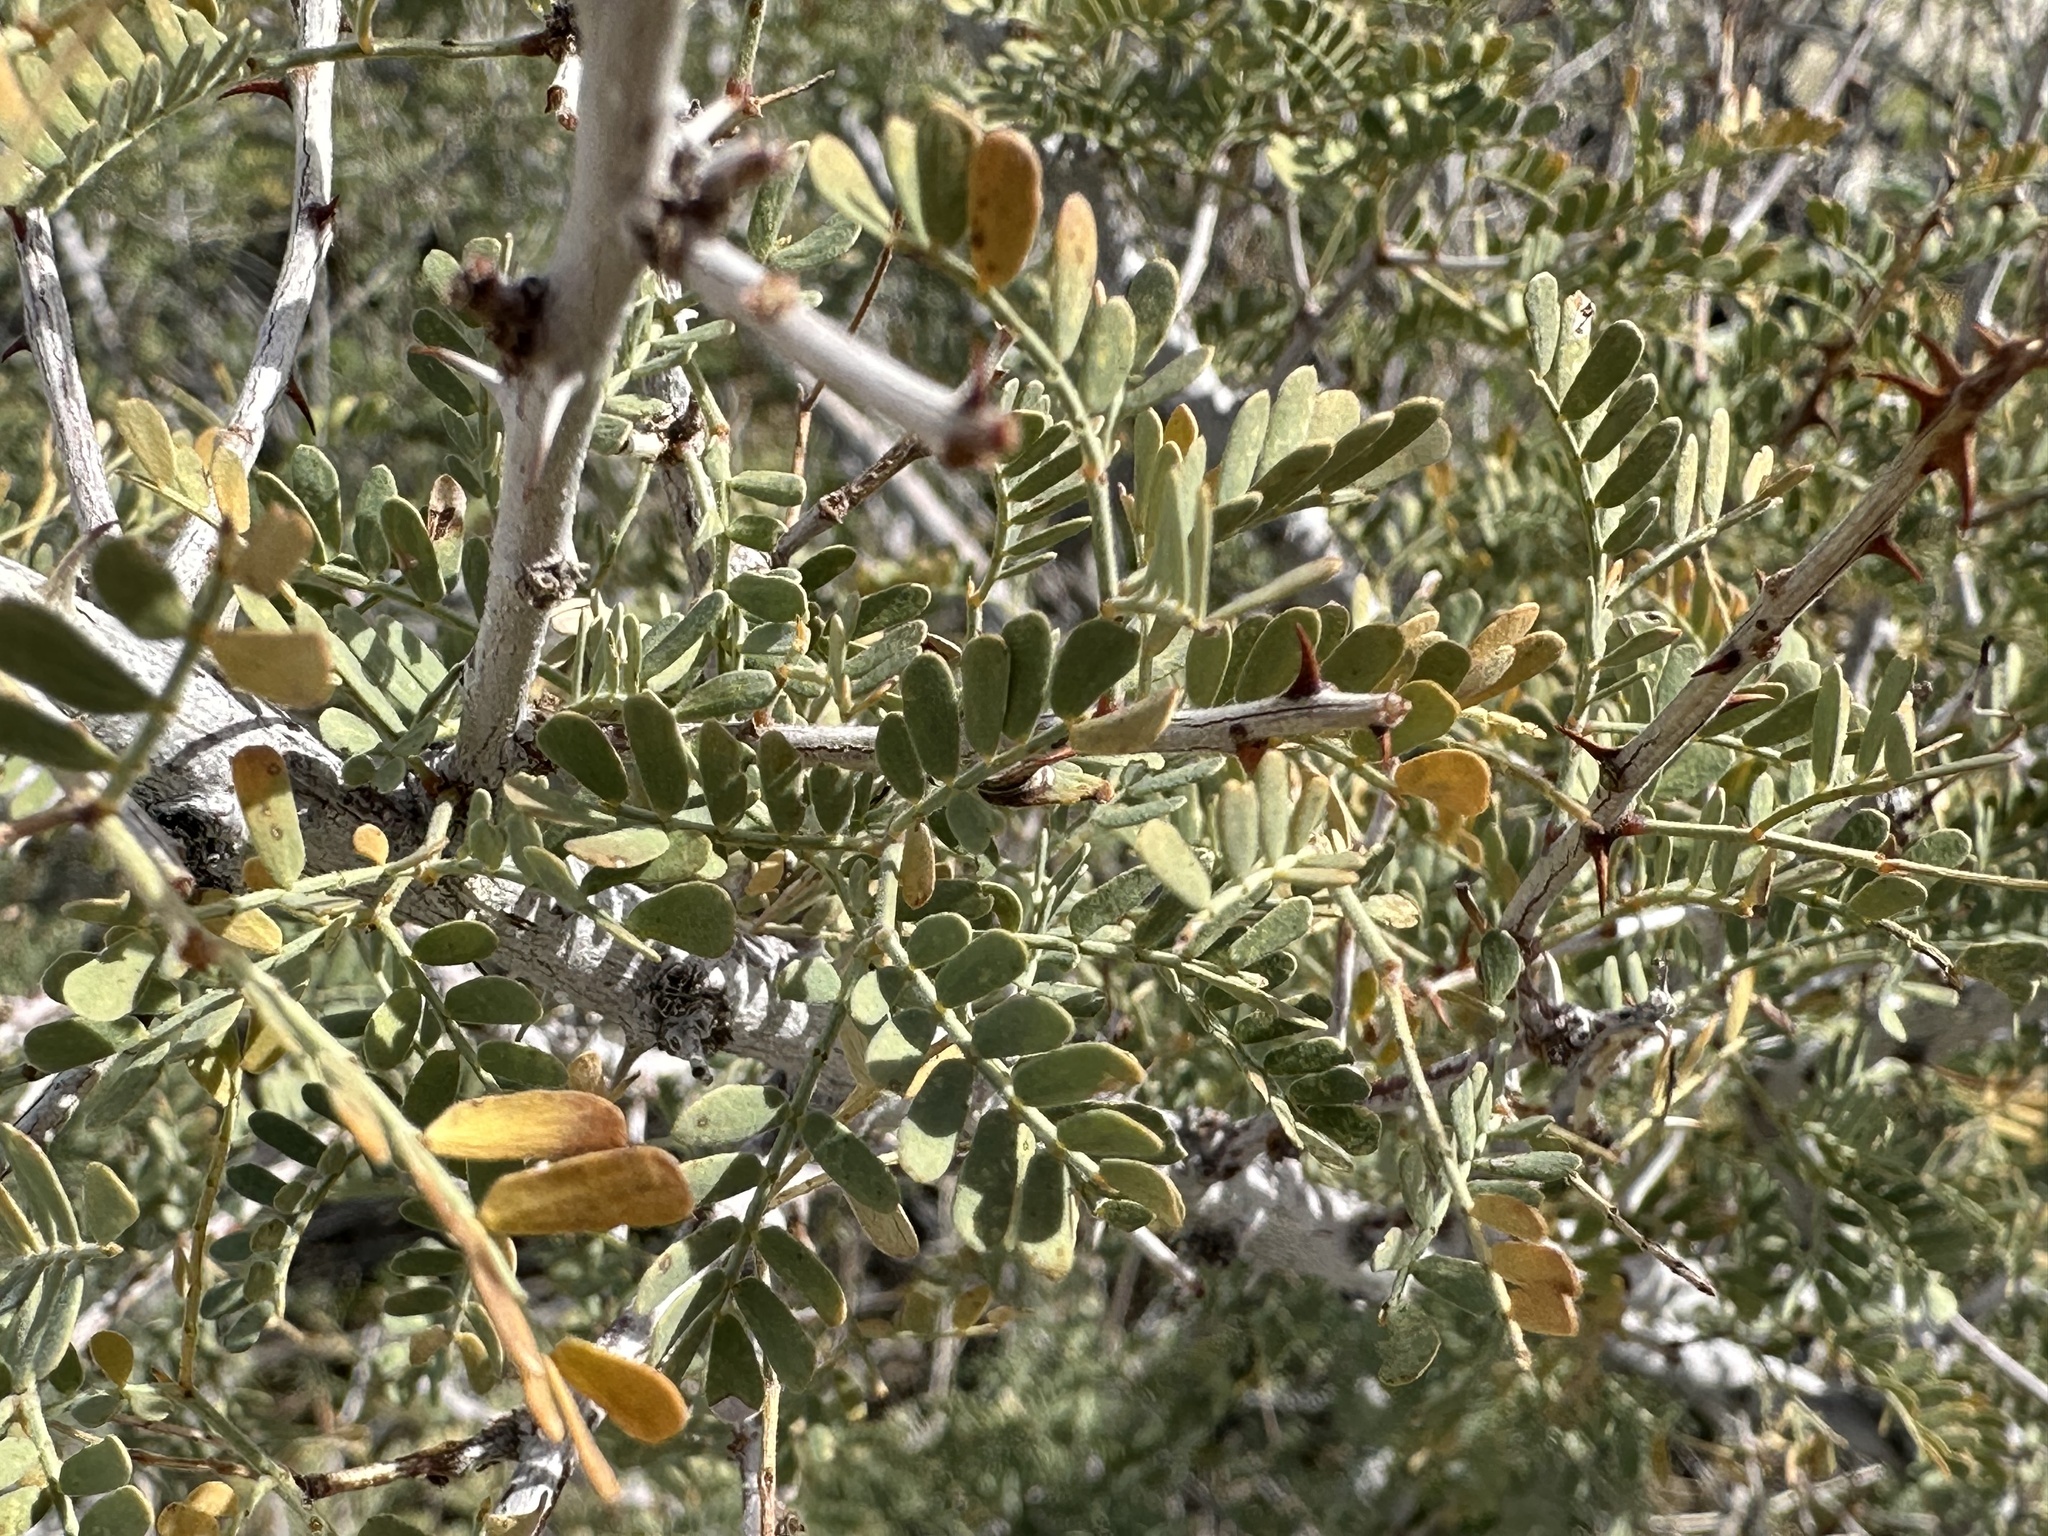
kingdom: Plantae
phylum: Tracheophyta
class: Magnoliopsida
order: Fabales
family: Fabaceae
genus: Senegalia
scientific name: Senegalia greggii
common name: Texas-mimosa
